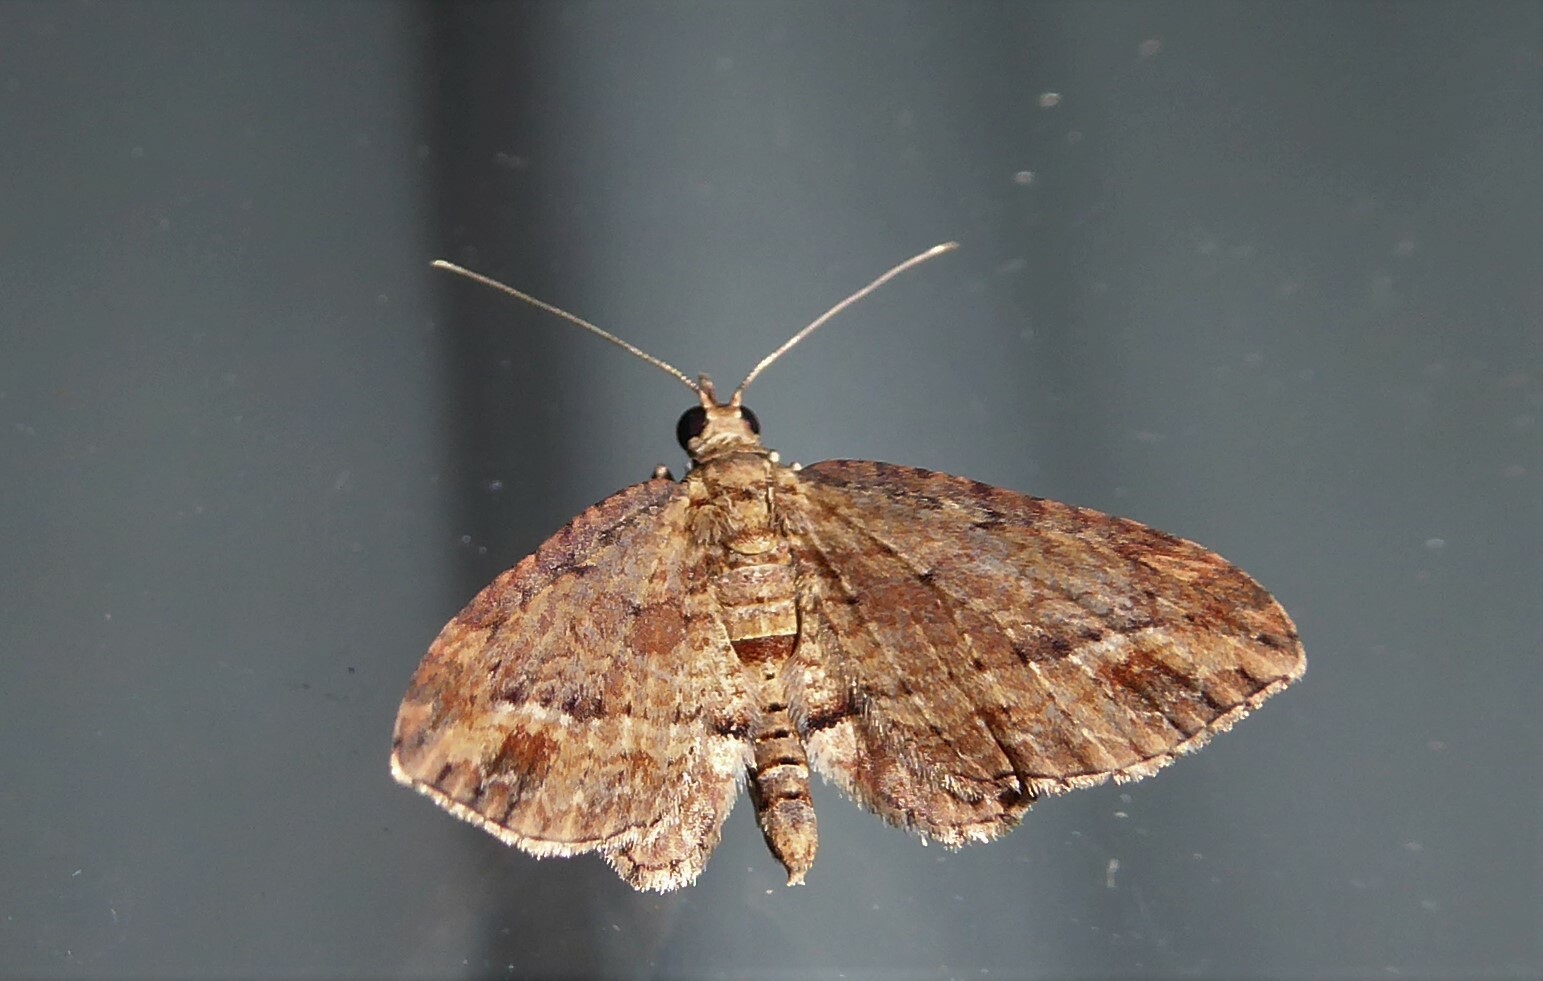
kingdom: Animalia
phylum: Arthropoda
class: Insecta
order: Lepidoptera
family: Geometridae
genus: Chloroclystis
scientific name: Chloroclystis filata
